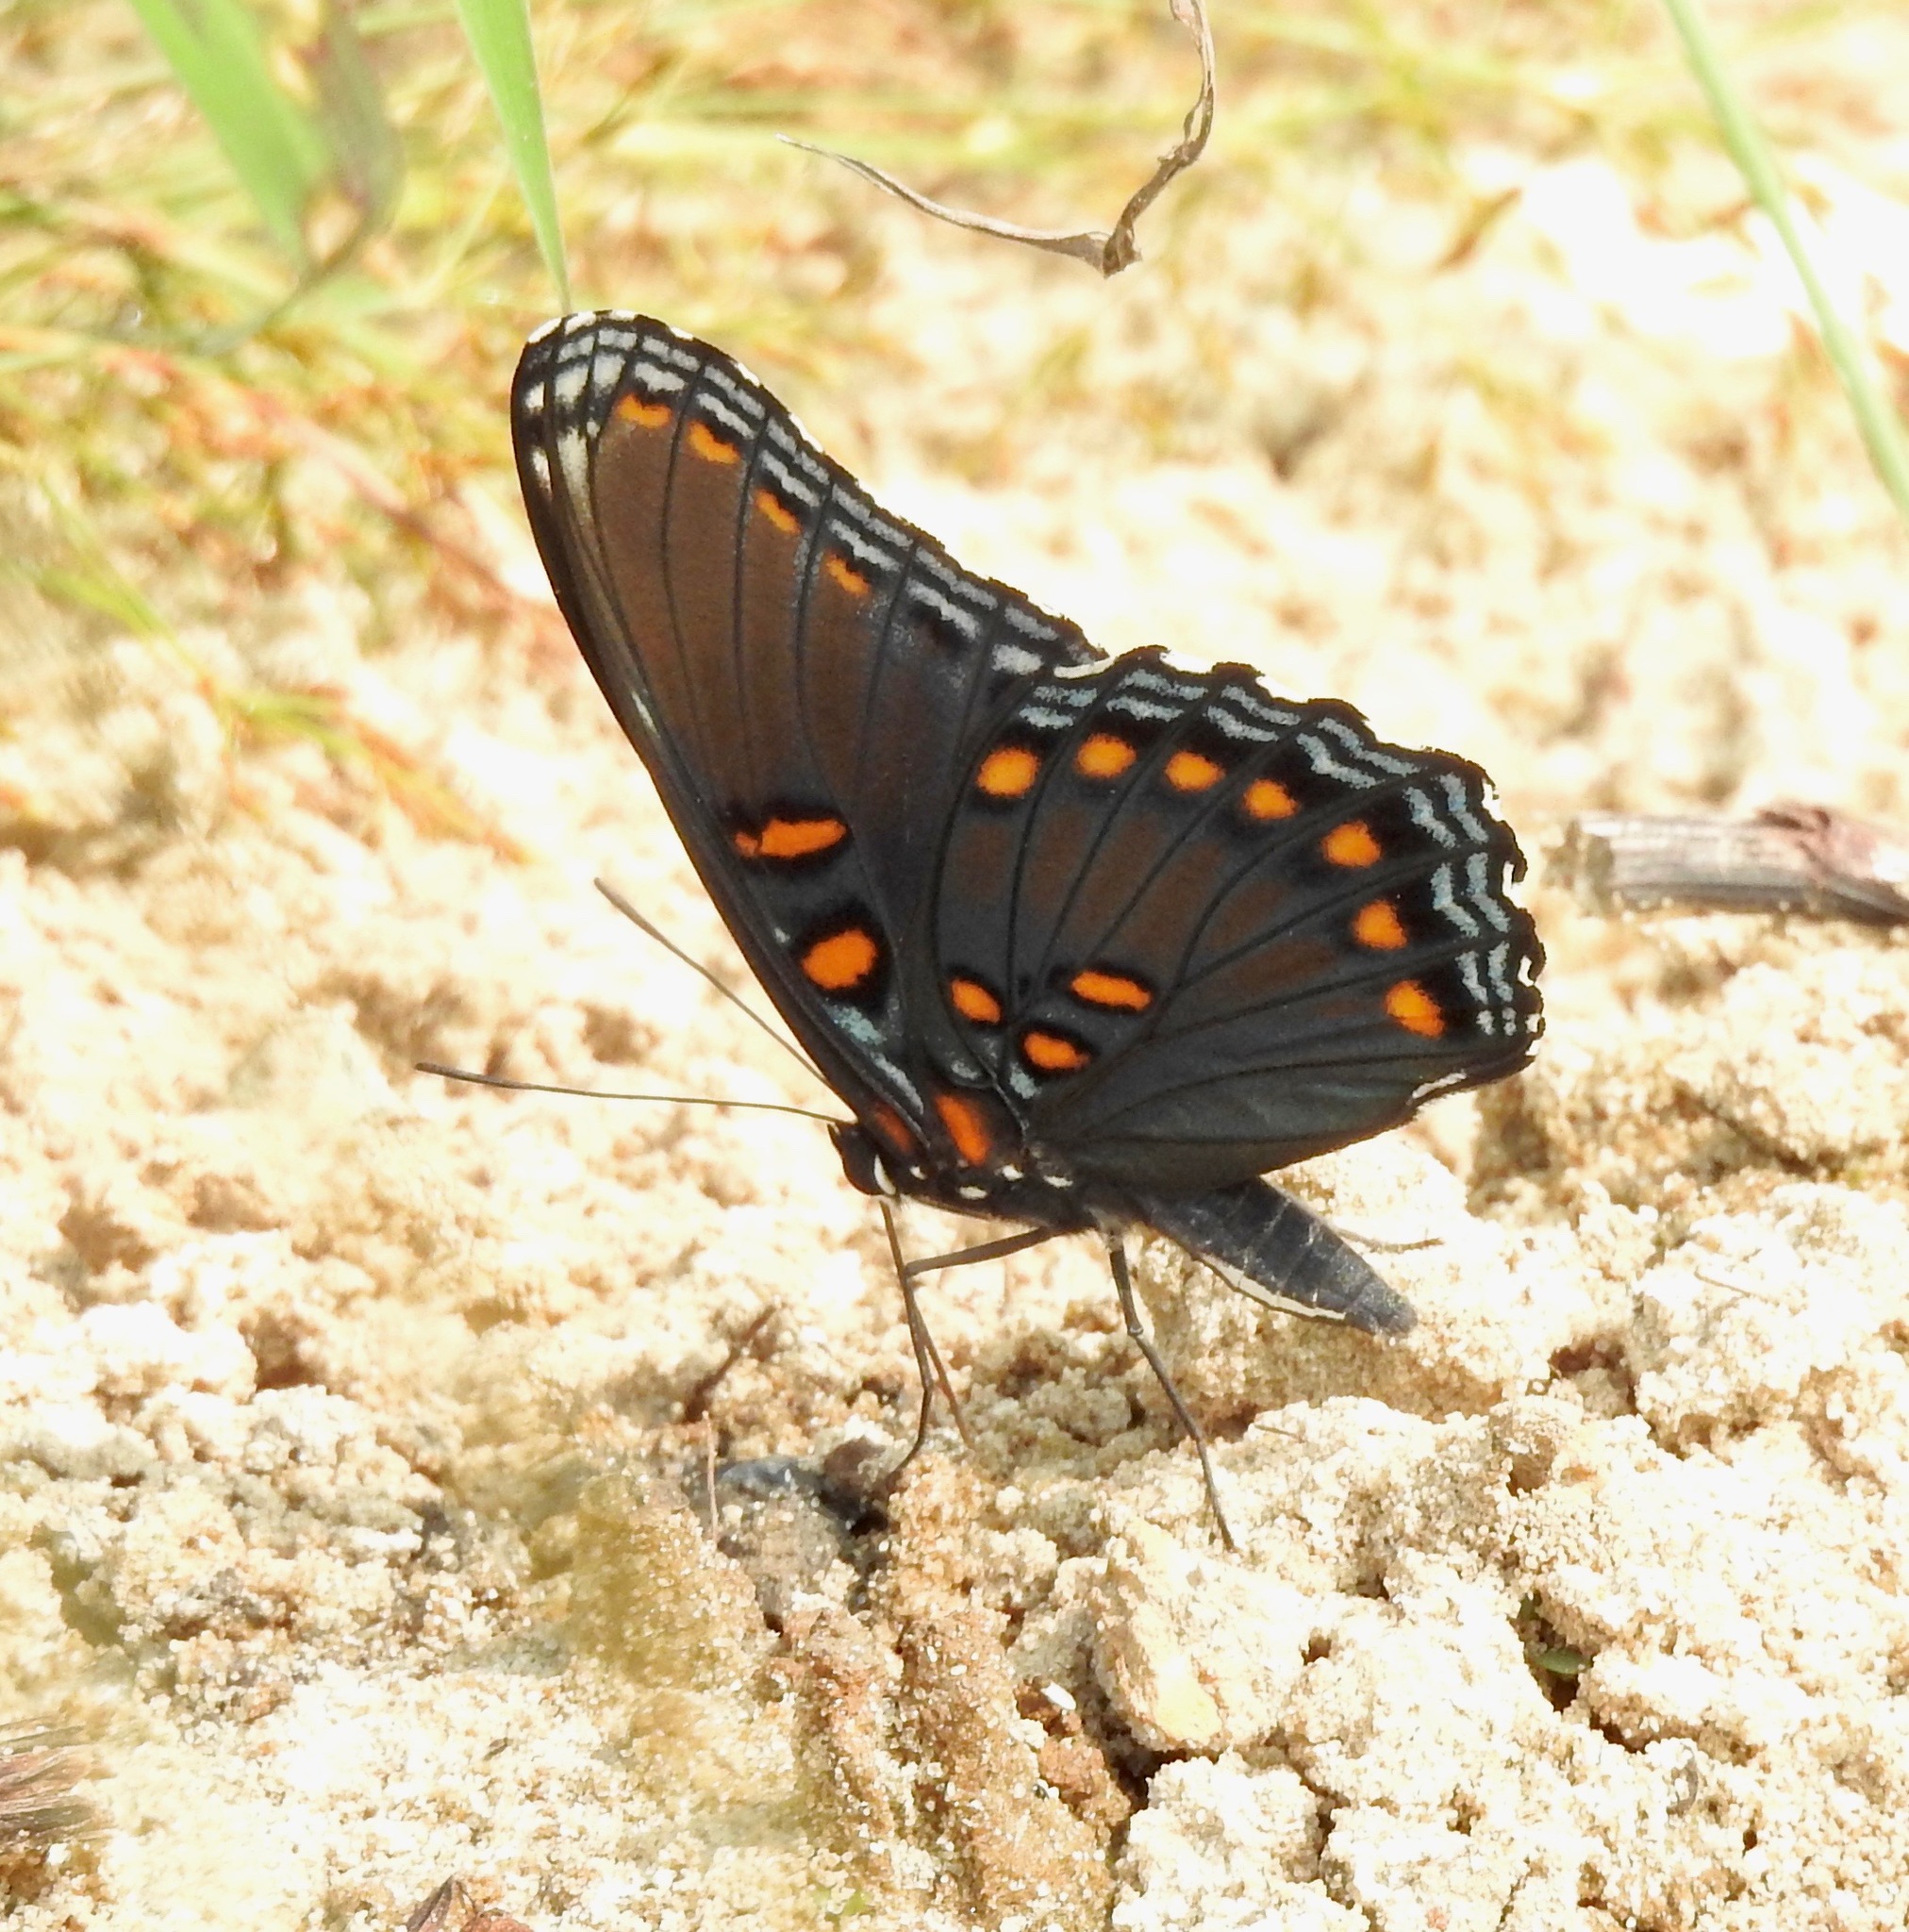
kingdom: Animalia
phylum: Arthropoda
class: Insecta
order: Lepidoptera
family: Nymphalidae
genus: Limenitis
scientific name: Limenitis arthemis
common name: Red-spotted admiral
